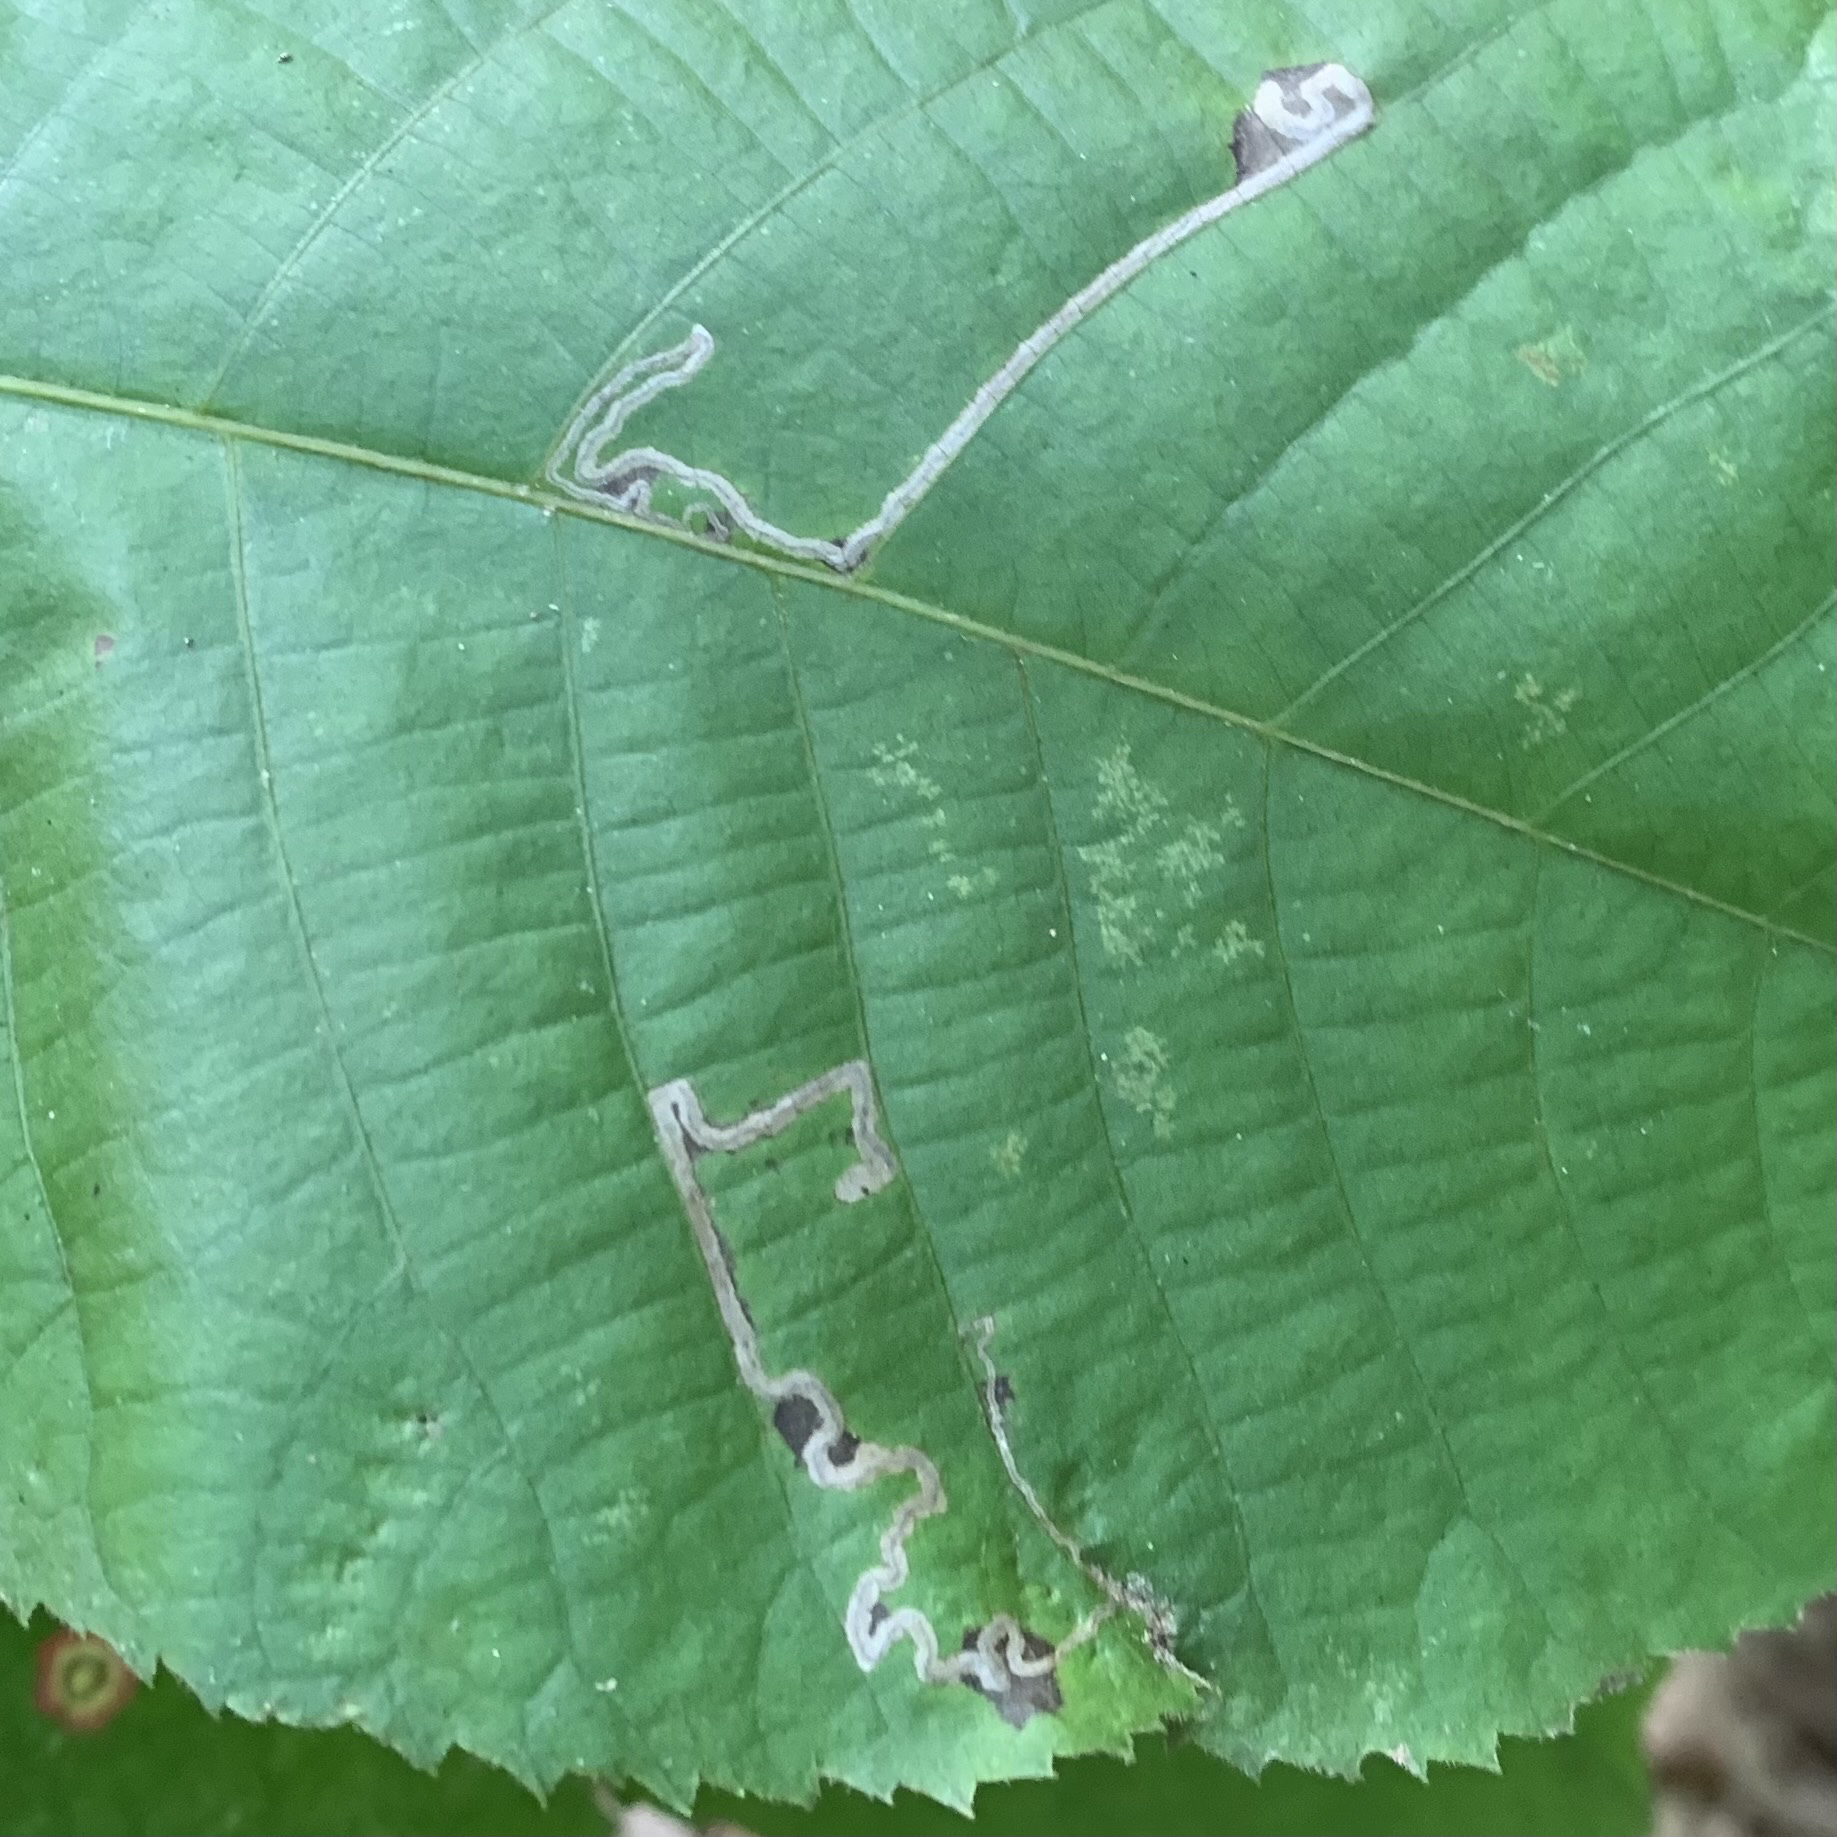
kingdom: Animalia
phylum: Arthropoda
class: Insecta
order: Lepidoptera
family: Nepticulidae
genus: Stigmella
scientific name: Stigmella caryaefoliella
